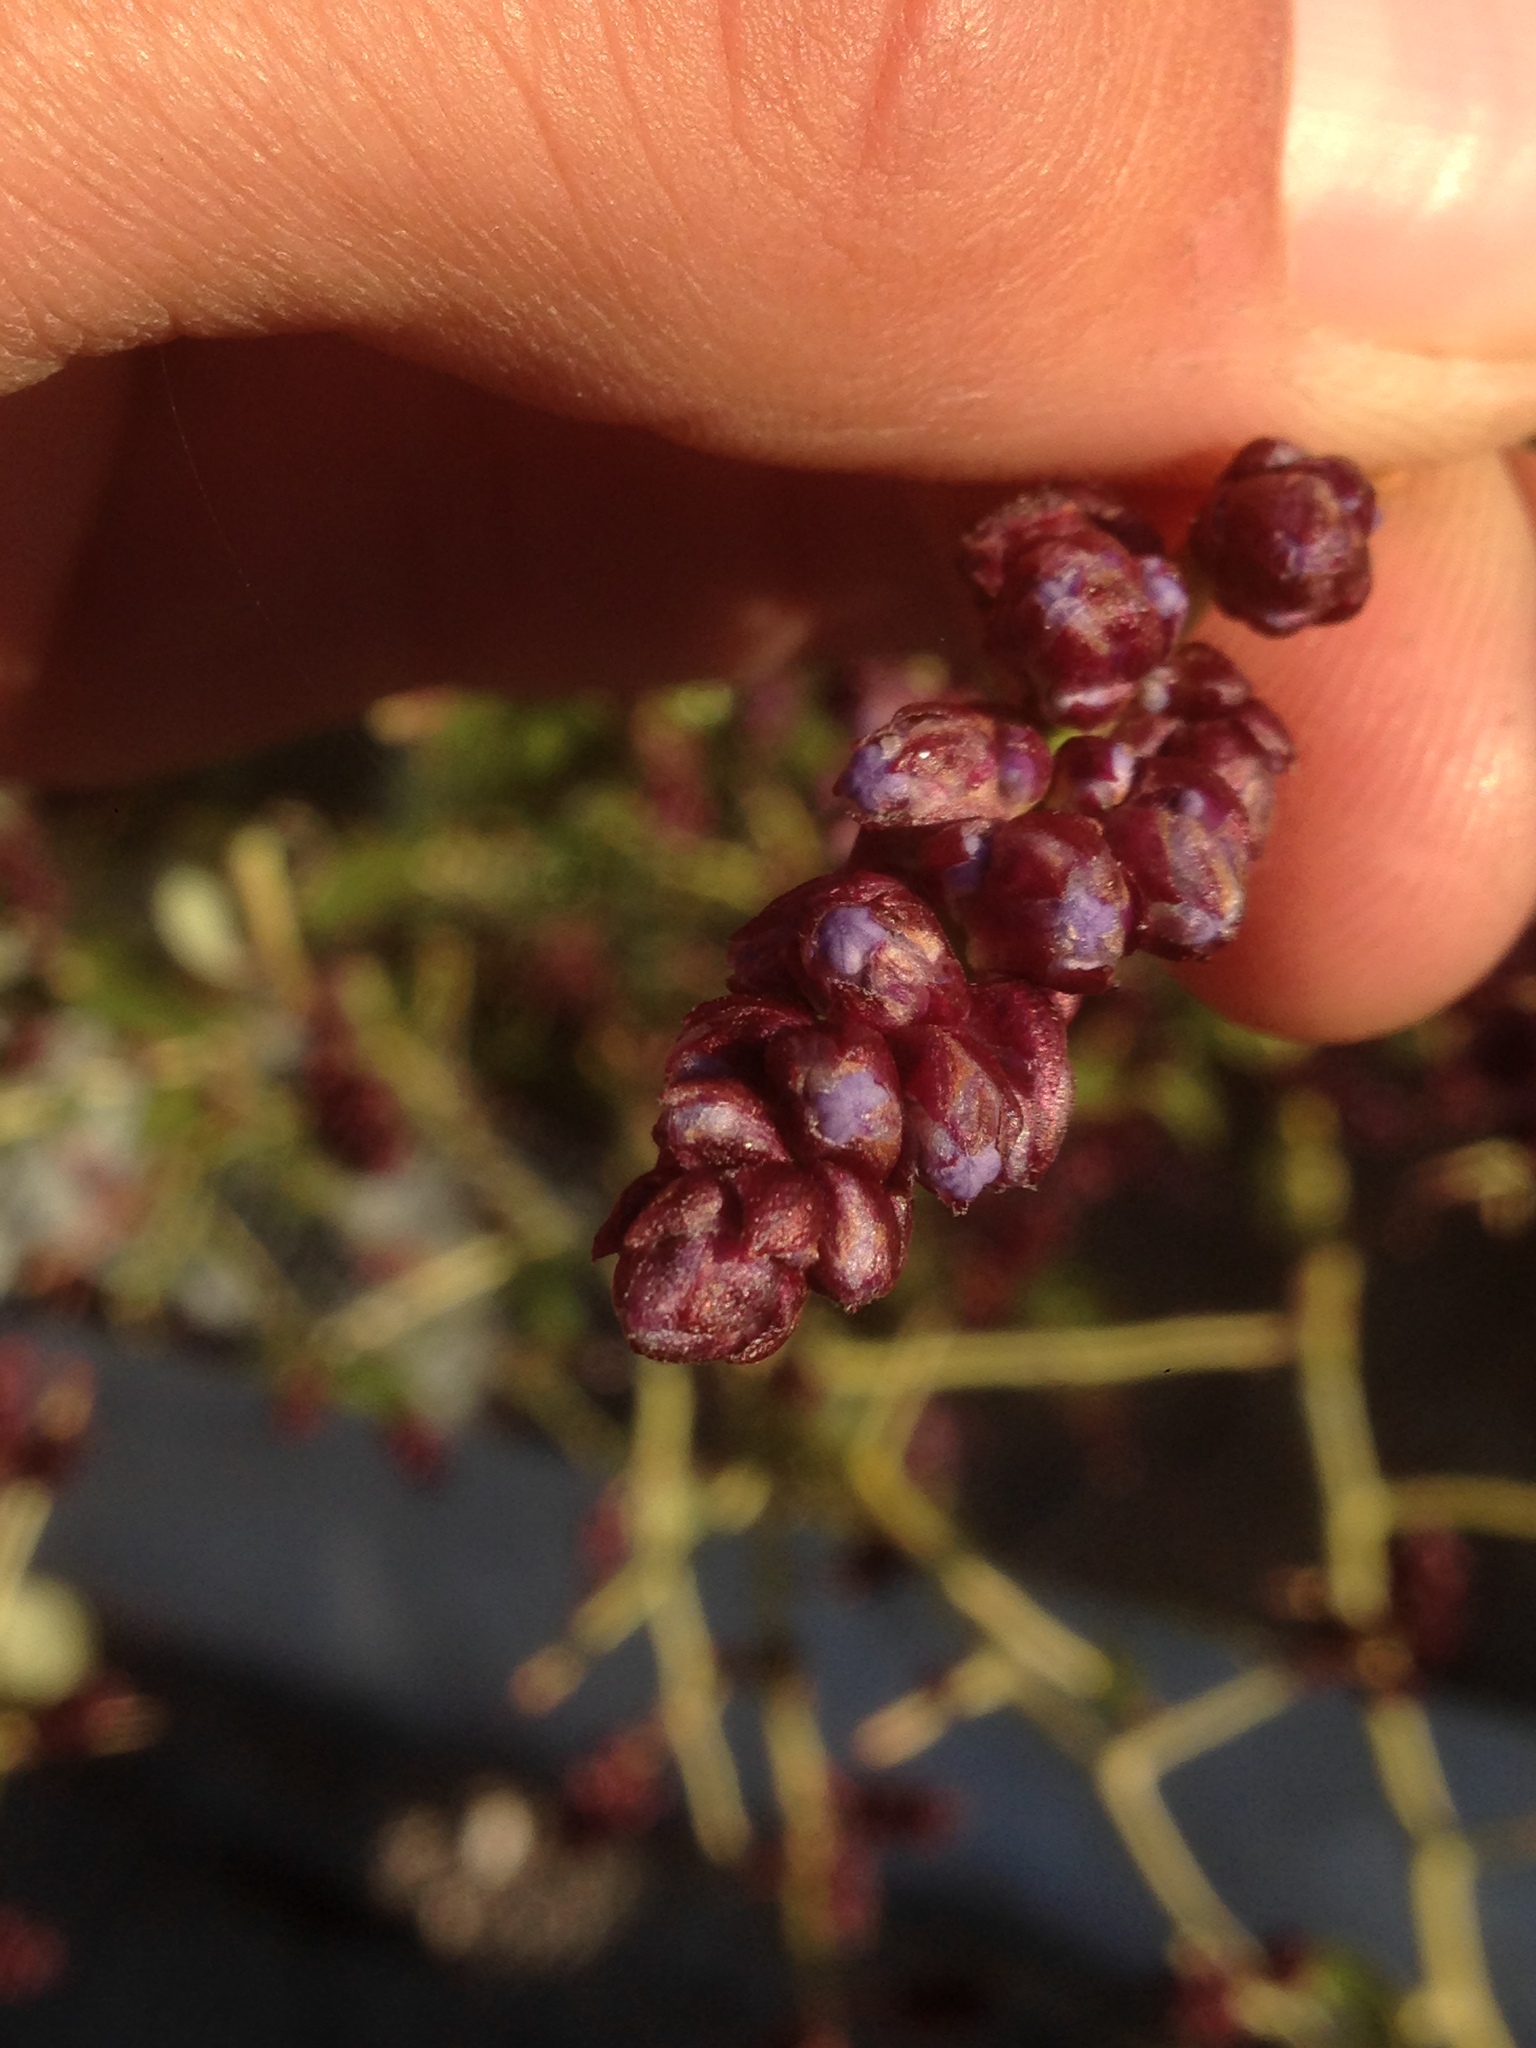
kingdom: Plantae
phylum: Tracheophyta
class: Magnoliopsida
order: Rosales
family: Rhamnaceae
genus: Ceanothus
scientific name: Ceanothus leucodermis
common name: Chaparral whitethorn
